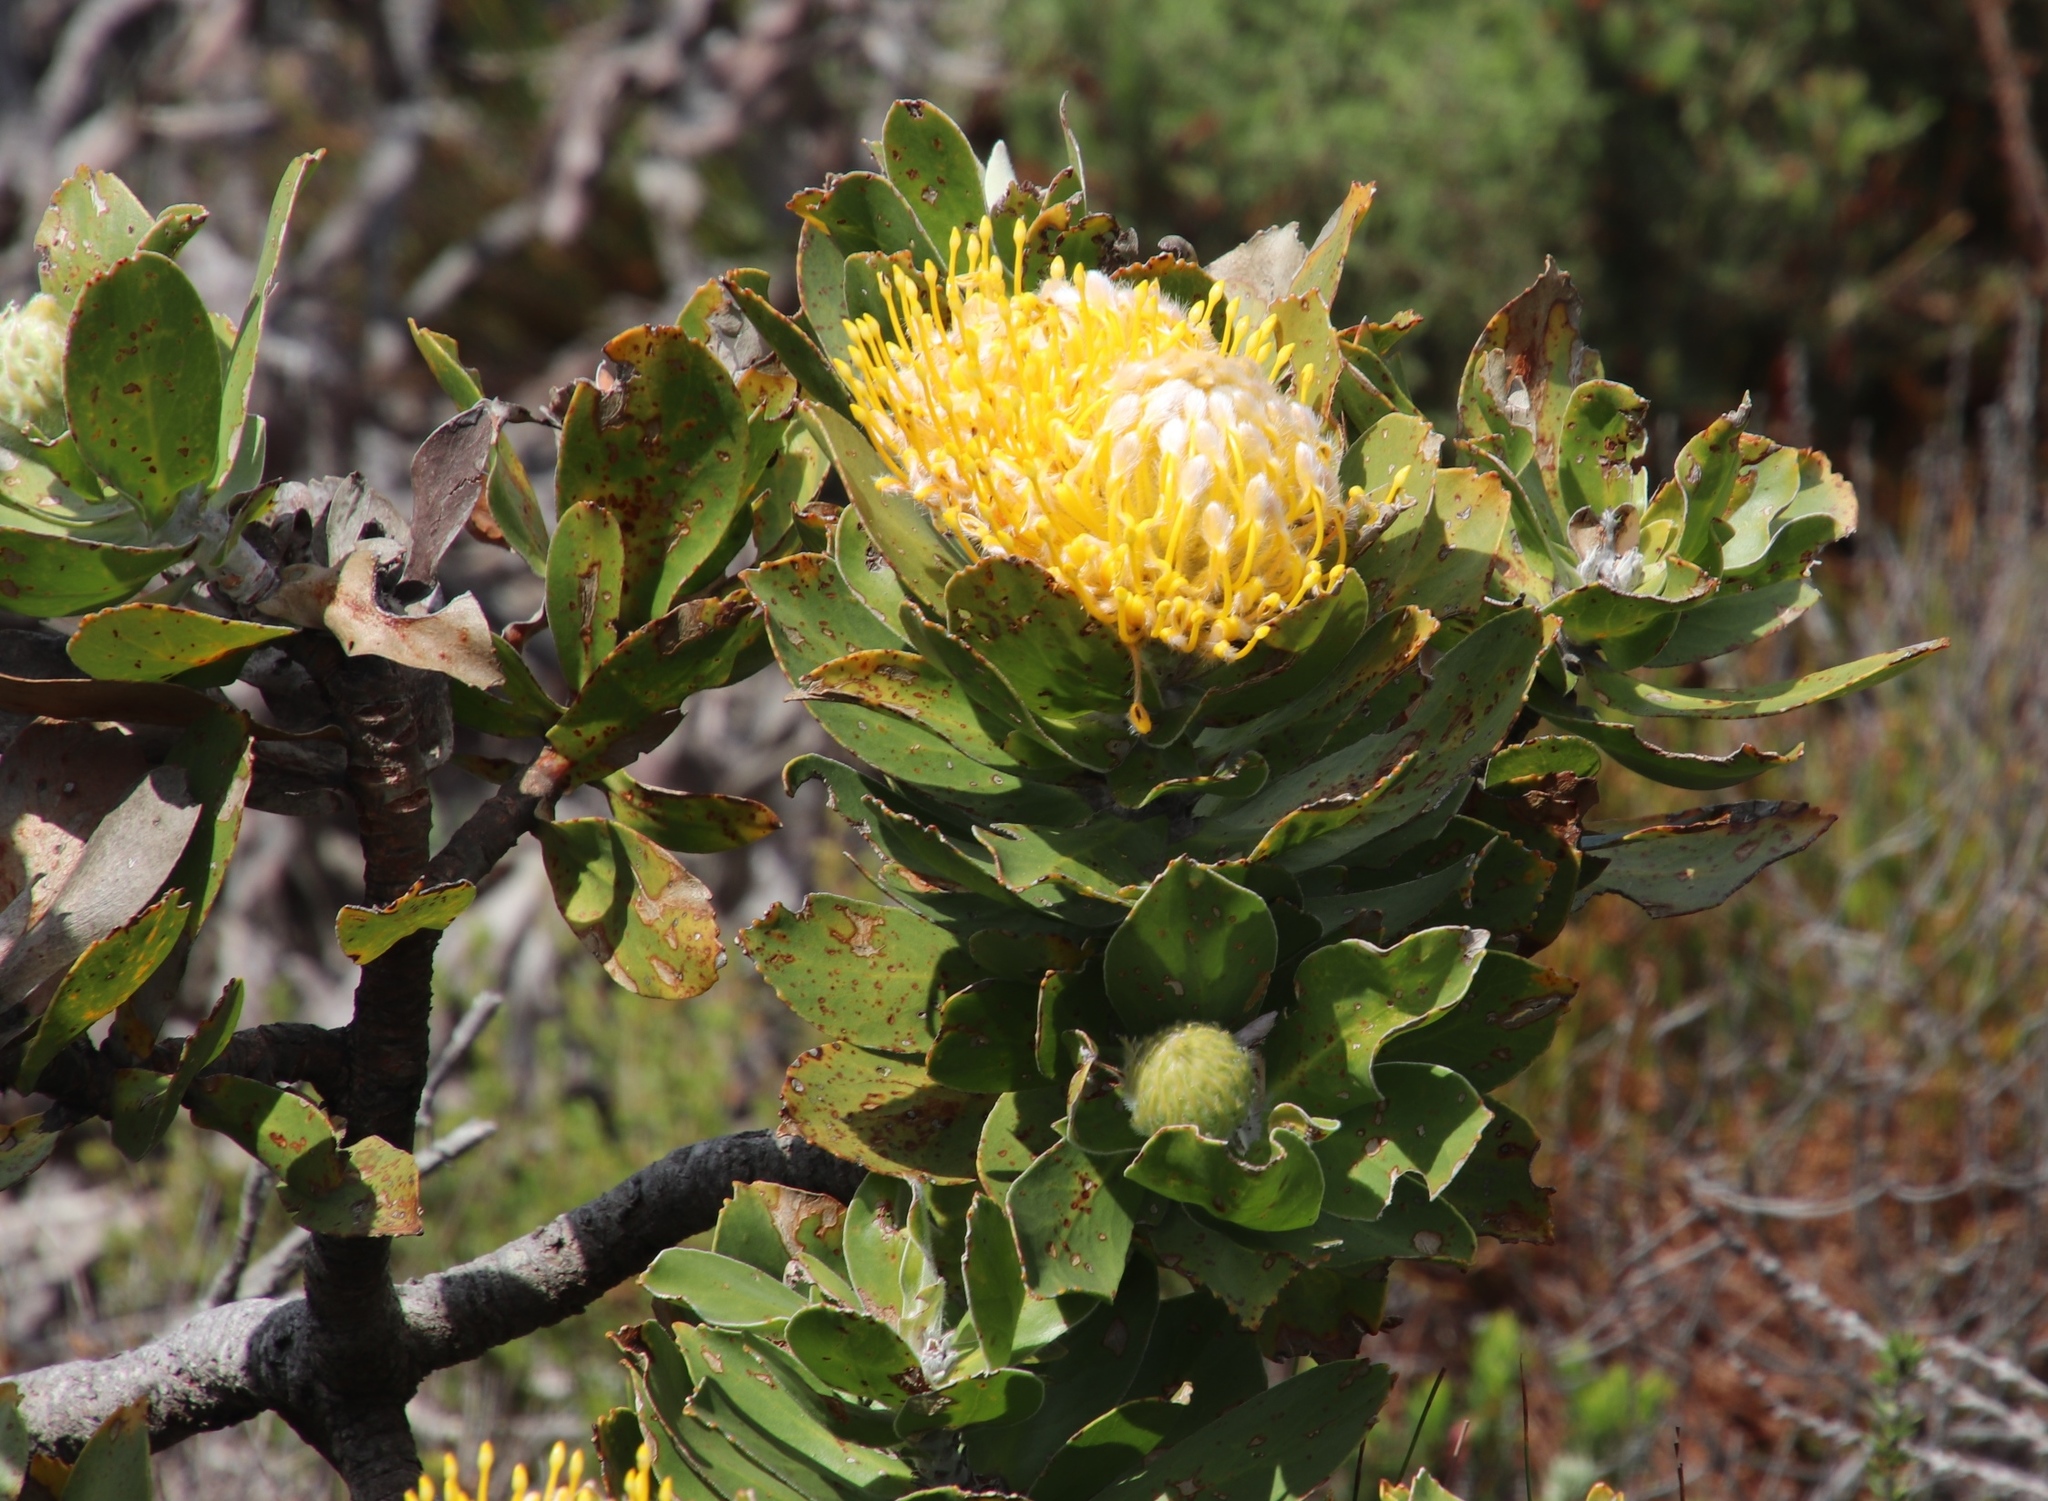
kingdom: Plantae
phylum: Tracheophyta
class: Magnoliopsida
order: Proteales
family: Proteaceae
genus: Leucospermum
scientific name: Leucospermum conocarpodendron
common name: Tree pincushion
